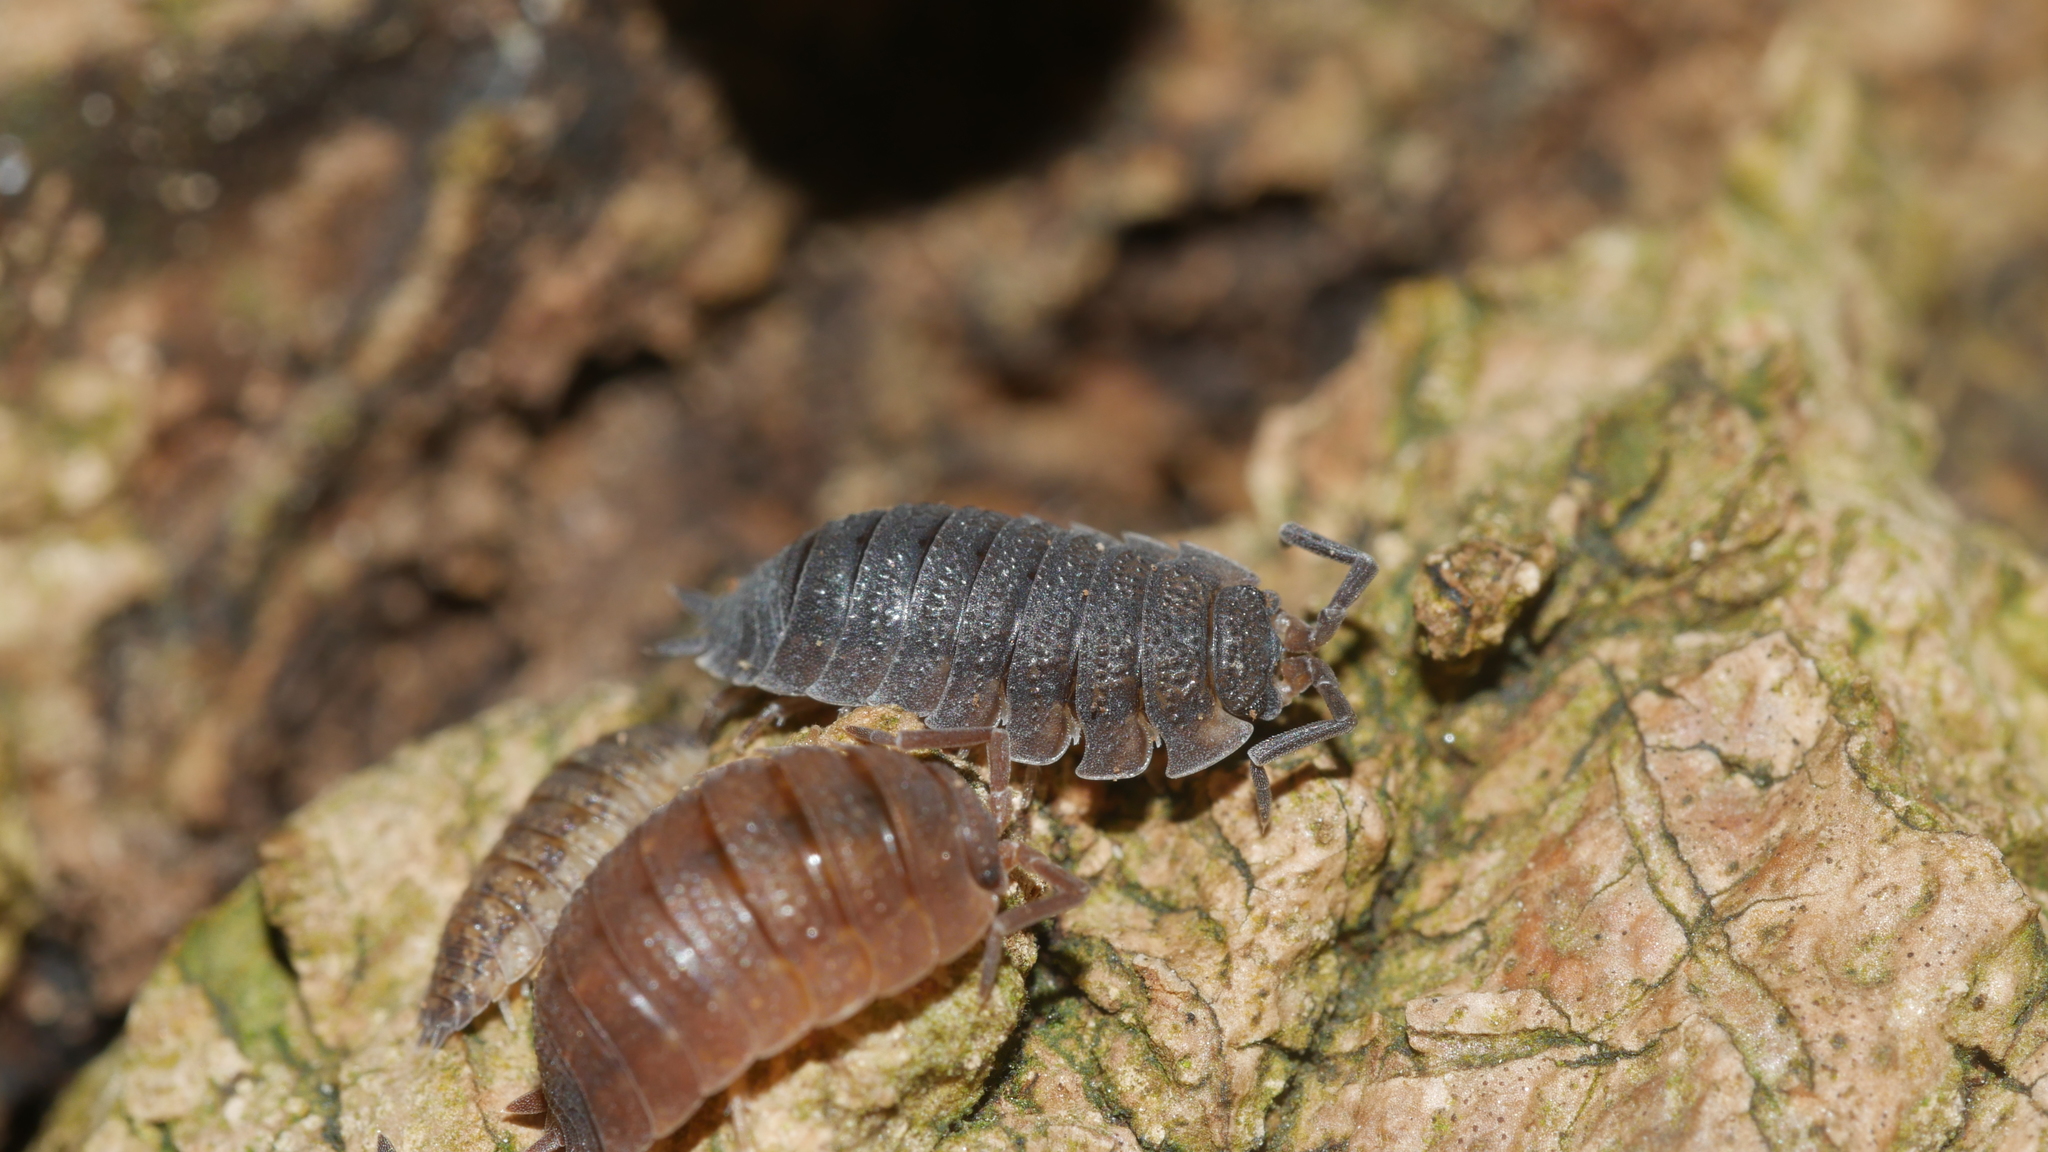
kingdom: Animalia
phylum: Arthropoda
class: Malacostraca
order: Isopoda
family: Porcellionidae
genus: Porcellio
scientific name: Porcellio scaber
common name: Common rough woodlouse
